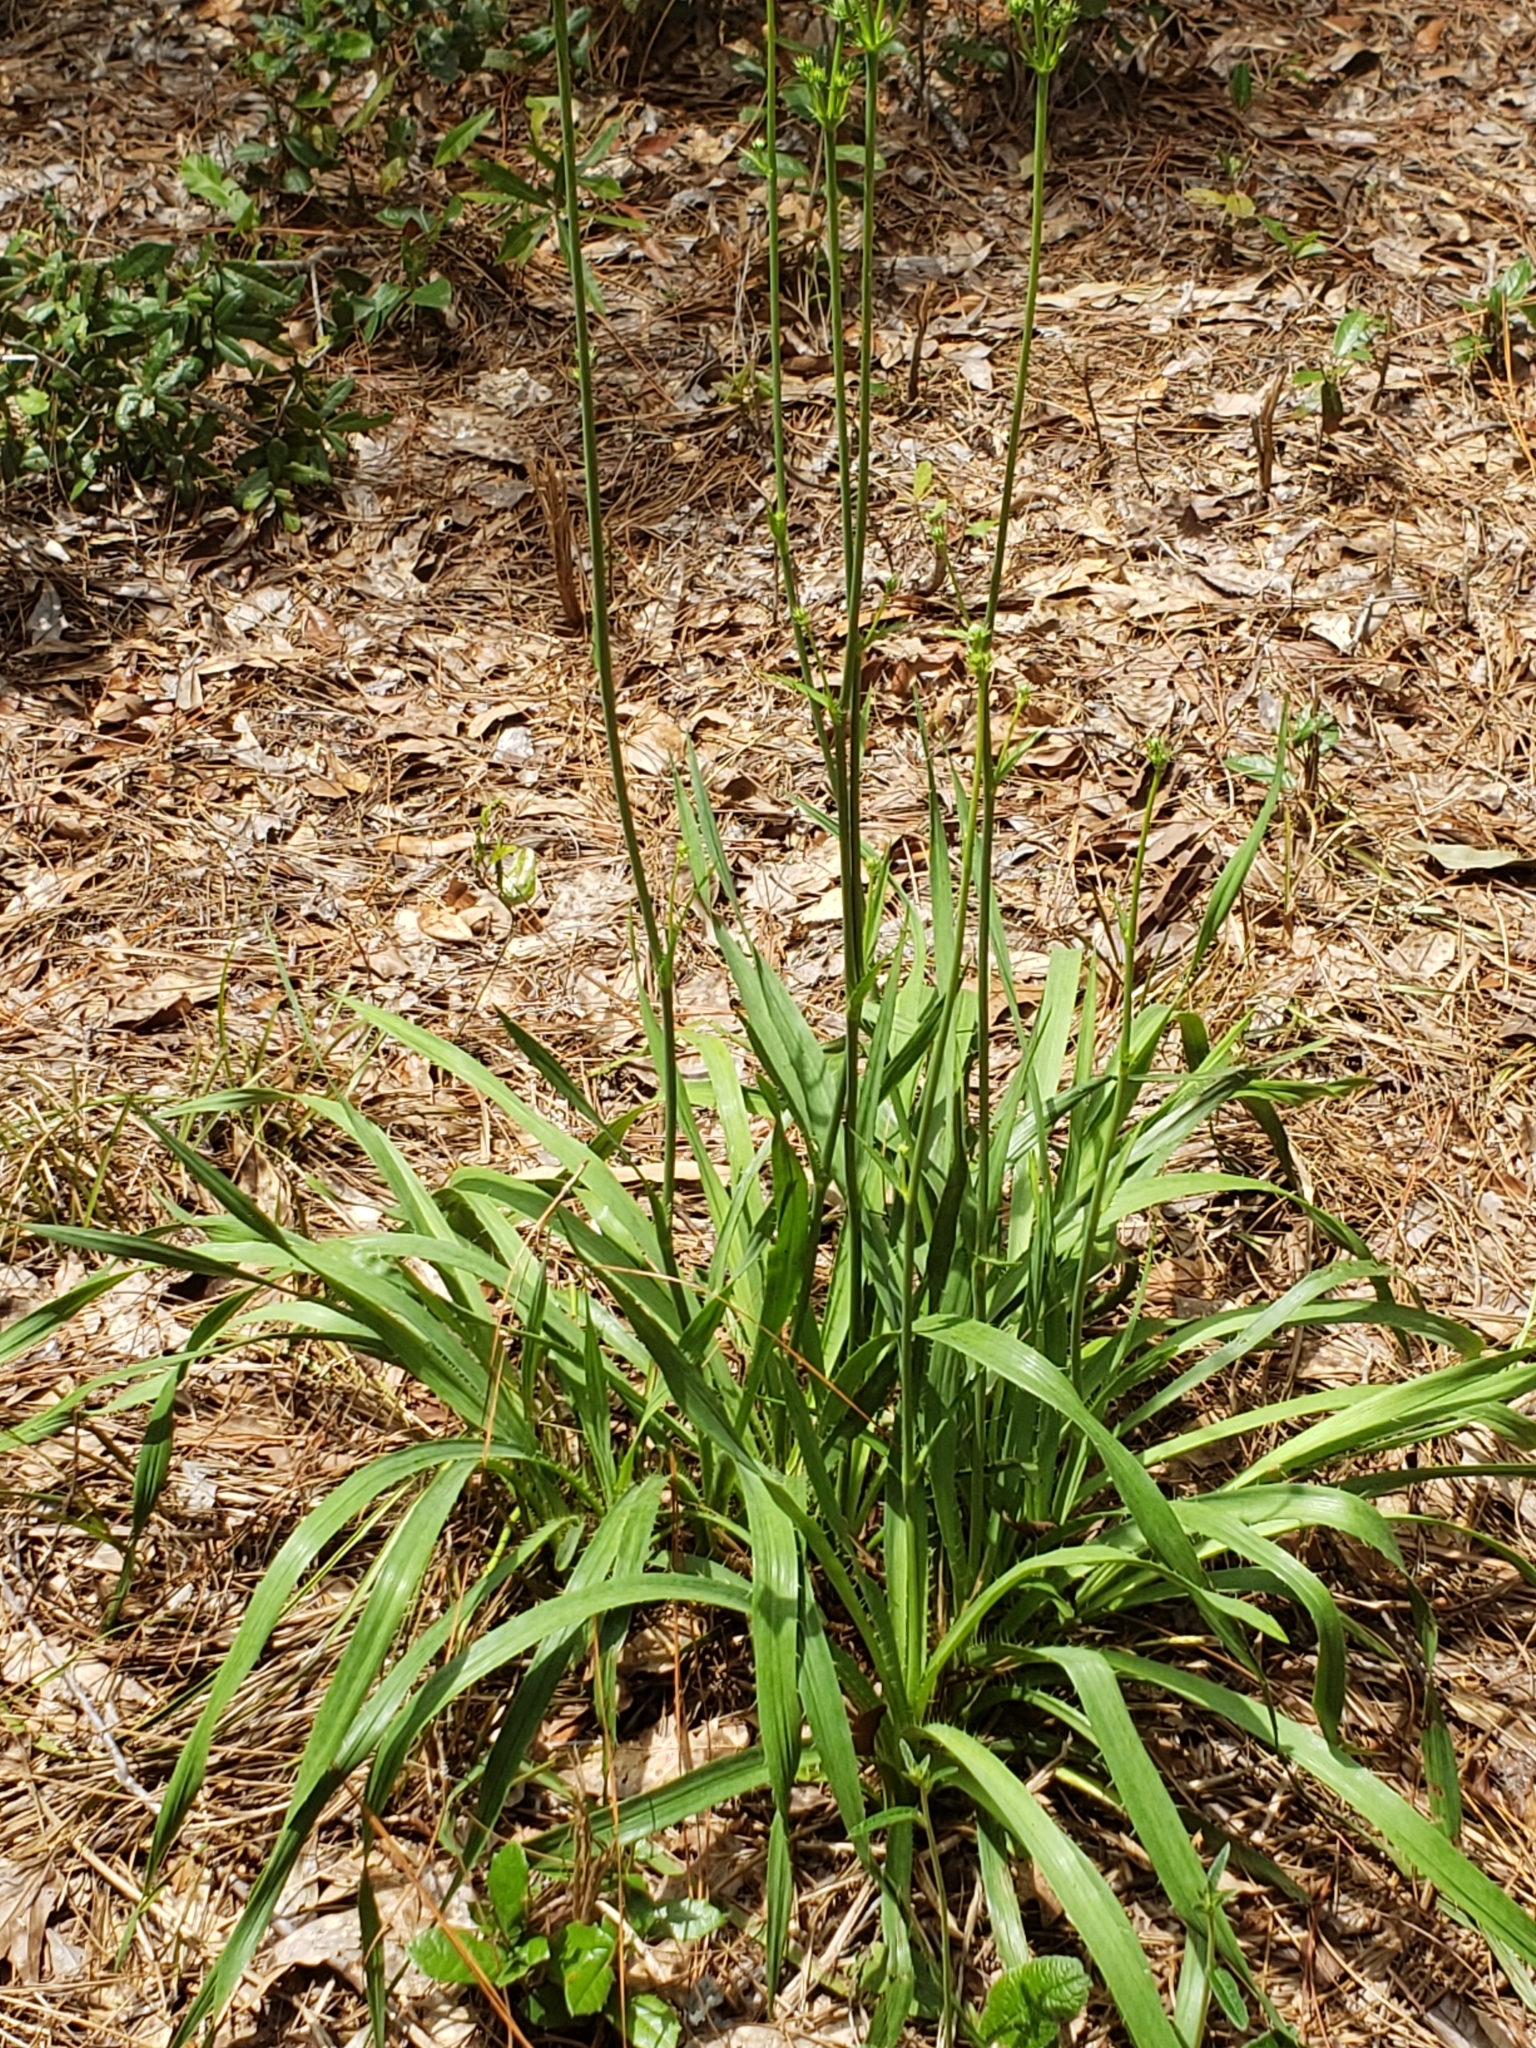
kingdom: Plantae
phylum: Tracheophyta
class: Magnoliopsida
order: Apiales
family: Apiaceae
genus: Eryngium
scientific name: Eryngium yuccifolium
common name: Button eryngo
